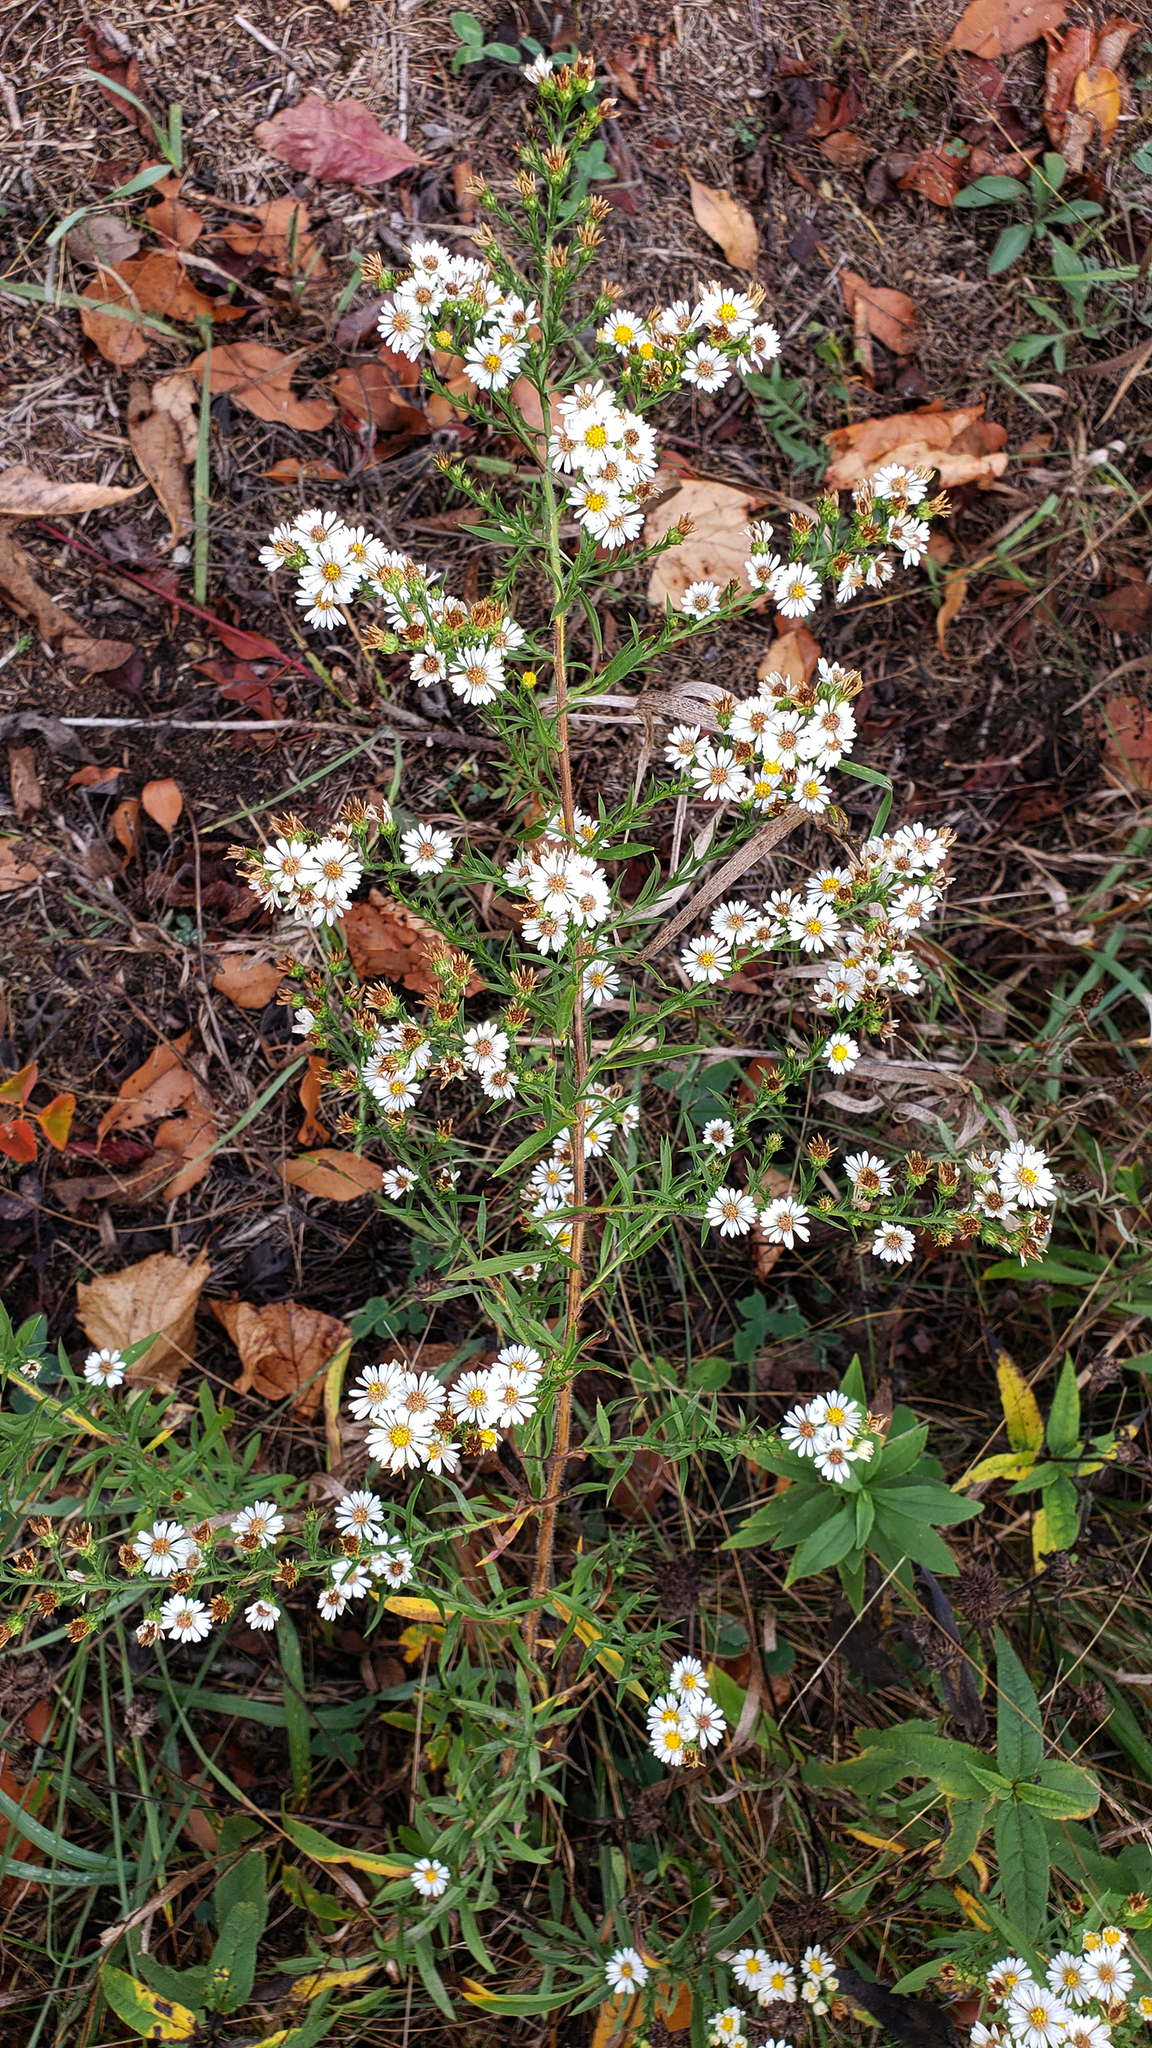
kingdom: Plantae
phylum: Tracheophyta
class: Magnoliopsida
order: Asterales
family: Asteraceae
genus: Symphyotrichum
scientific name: Symphyotrichum pilosum
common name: Awl aster
